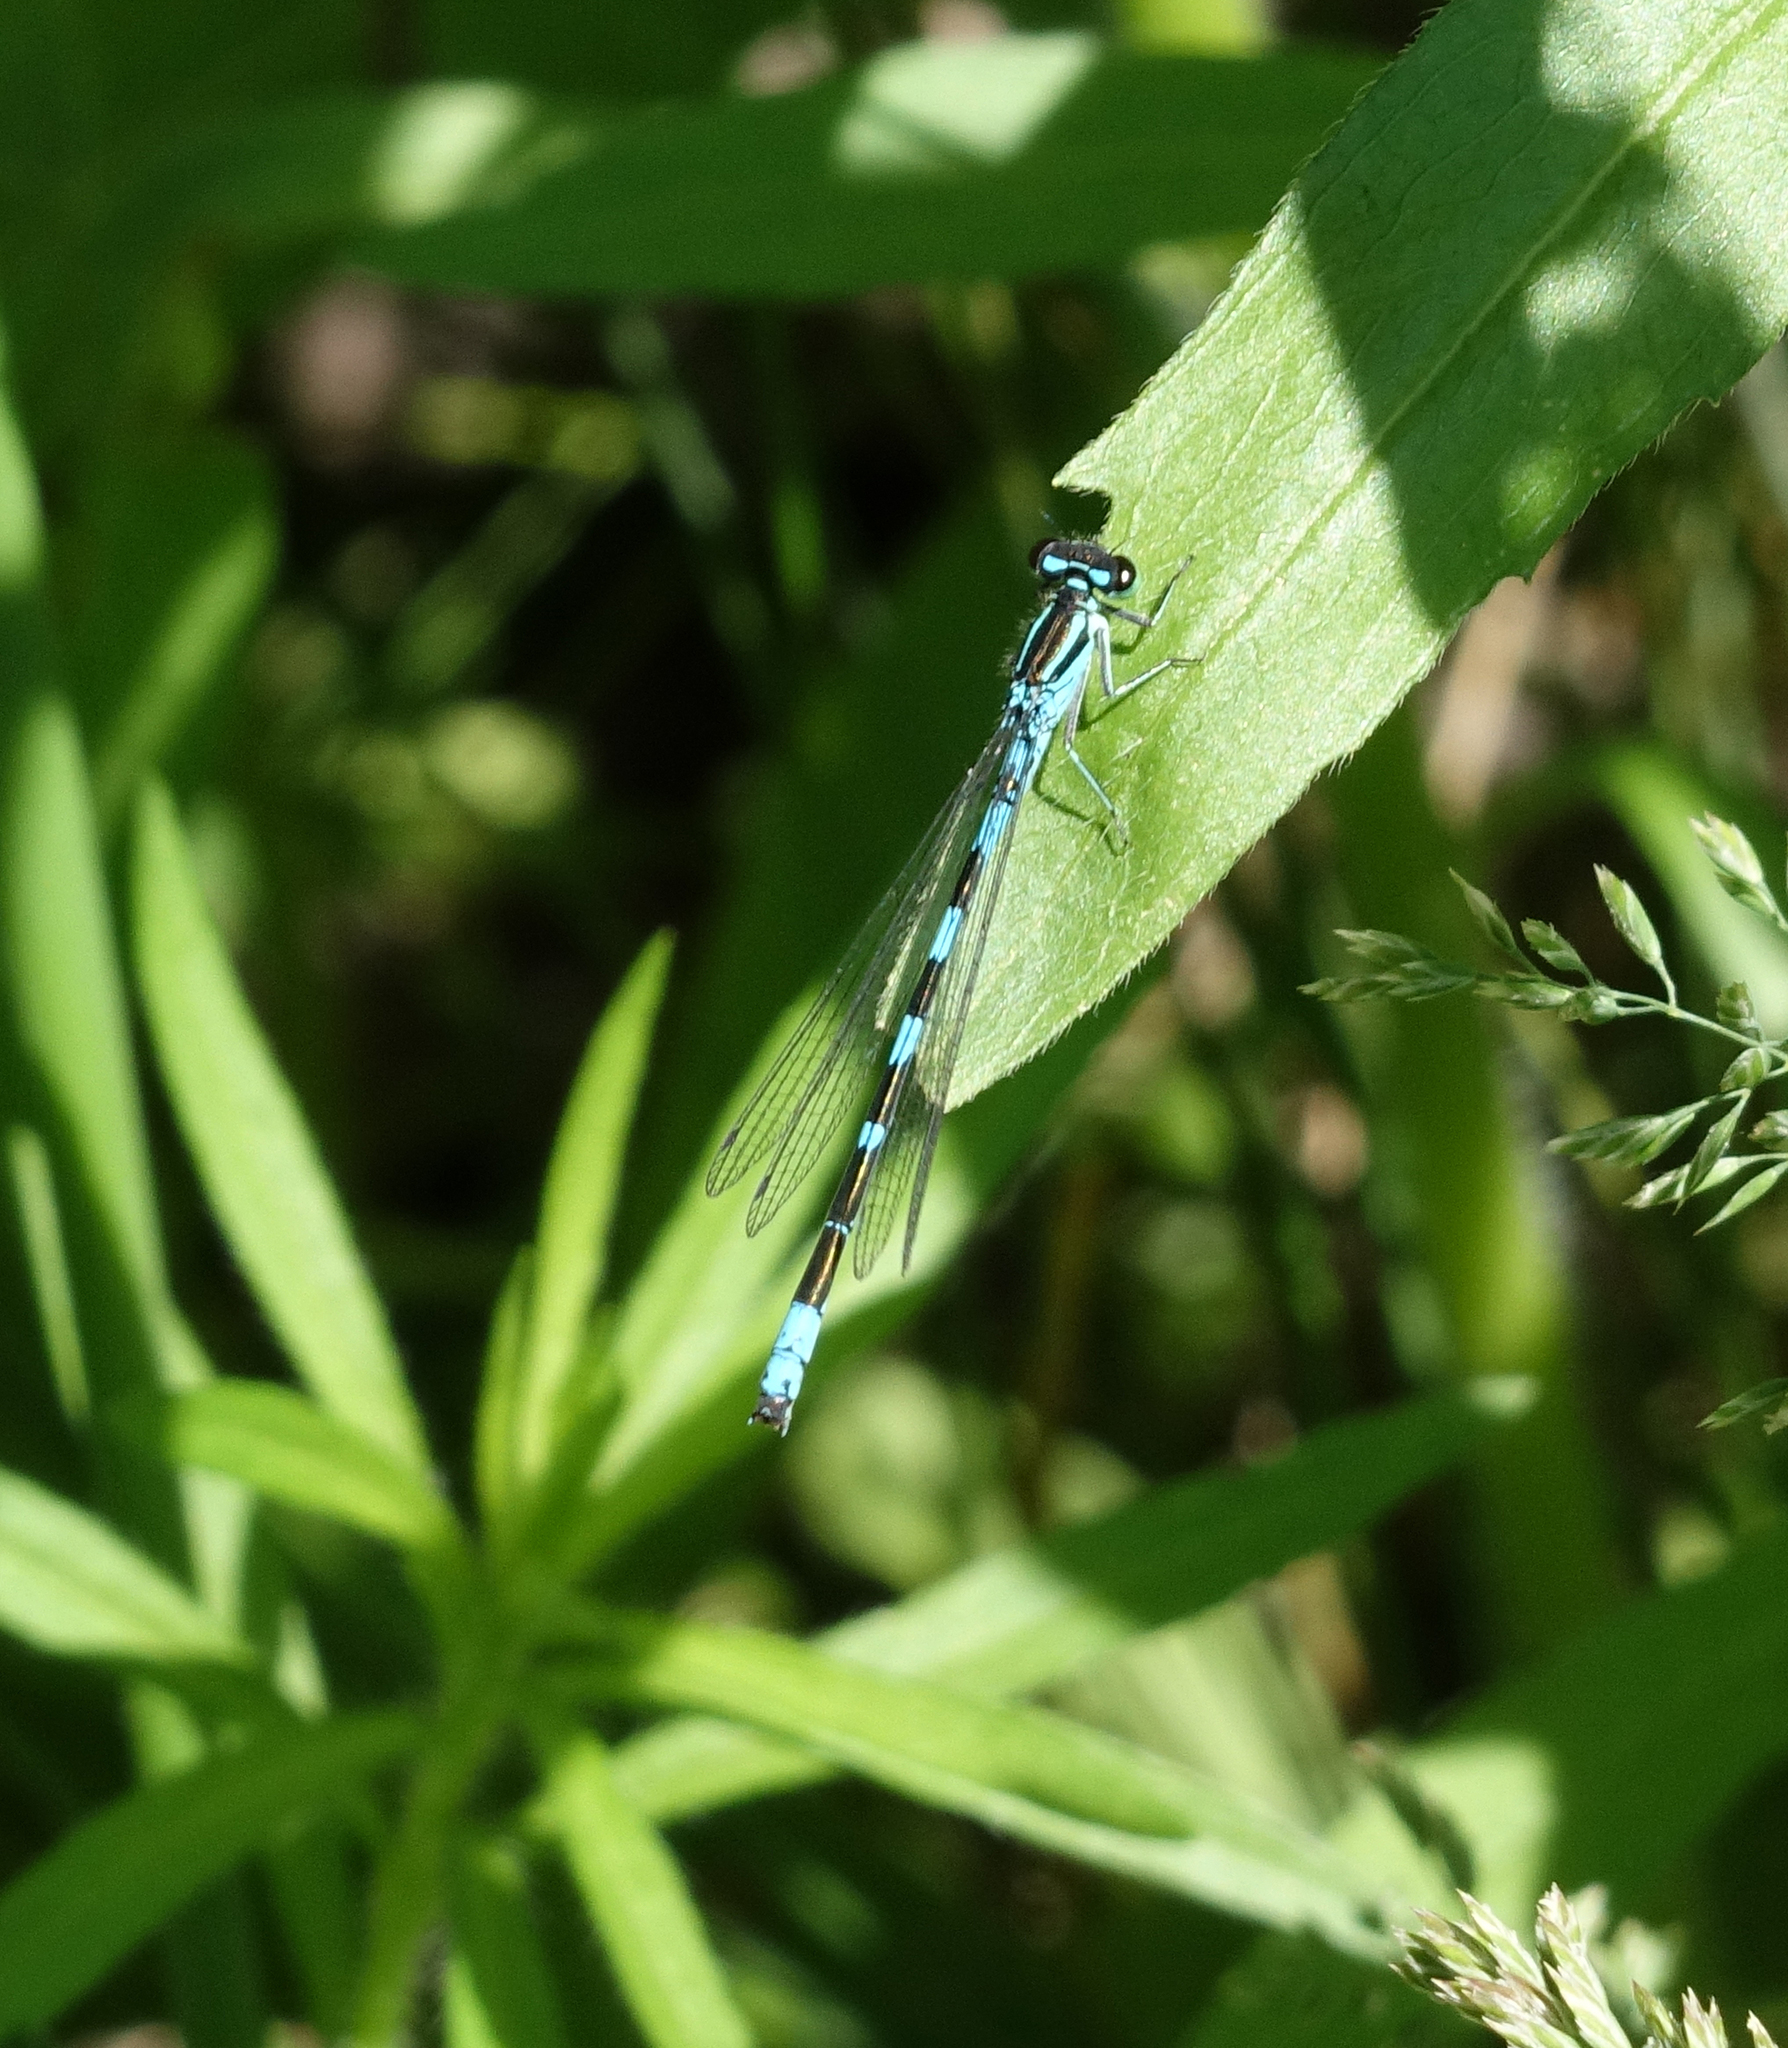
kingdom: Animalia
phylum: Arthropoda
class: Insecta
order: Odonata
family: Coenagrionidae
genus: Coenagrion
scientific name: Coenagrion hastulatum
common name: Spearhead bluet
